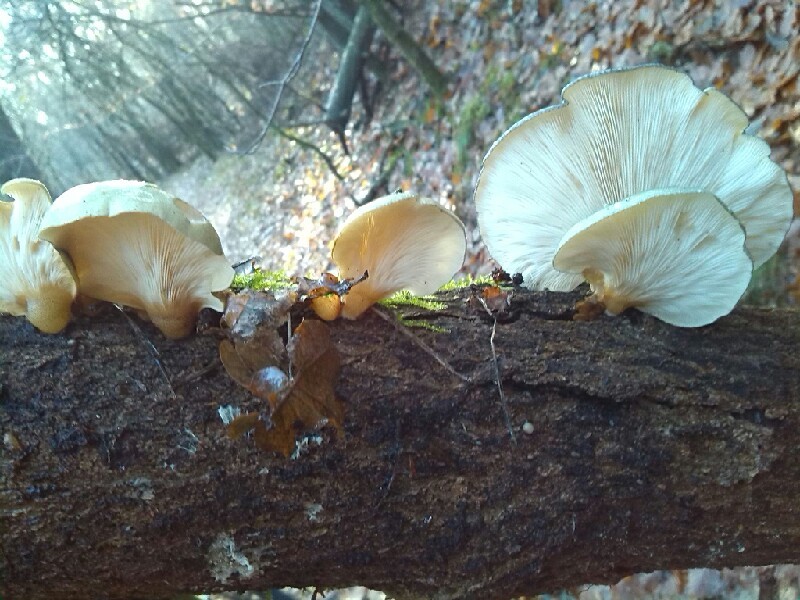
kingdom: Fungi
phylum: Basidiomycota
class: Agaricomycetes
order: Agaricales
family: Sarcomyxaceae
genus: Sarcomyxa
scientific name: Sarcomyxa serotina
